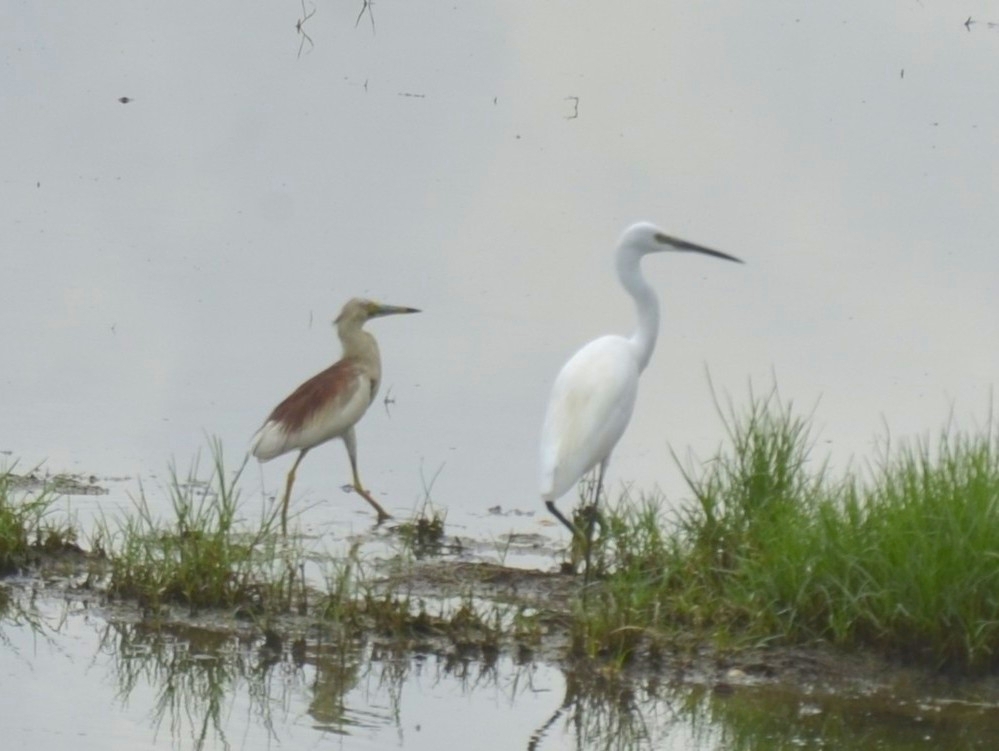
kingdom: Animalia
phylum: Chordata
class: Aves
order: Pelecaniformes
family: Ardeidae
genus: Ardeola
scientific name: Ardeola grayii
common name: Indian pond heron
